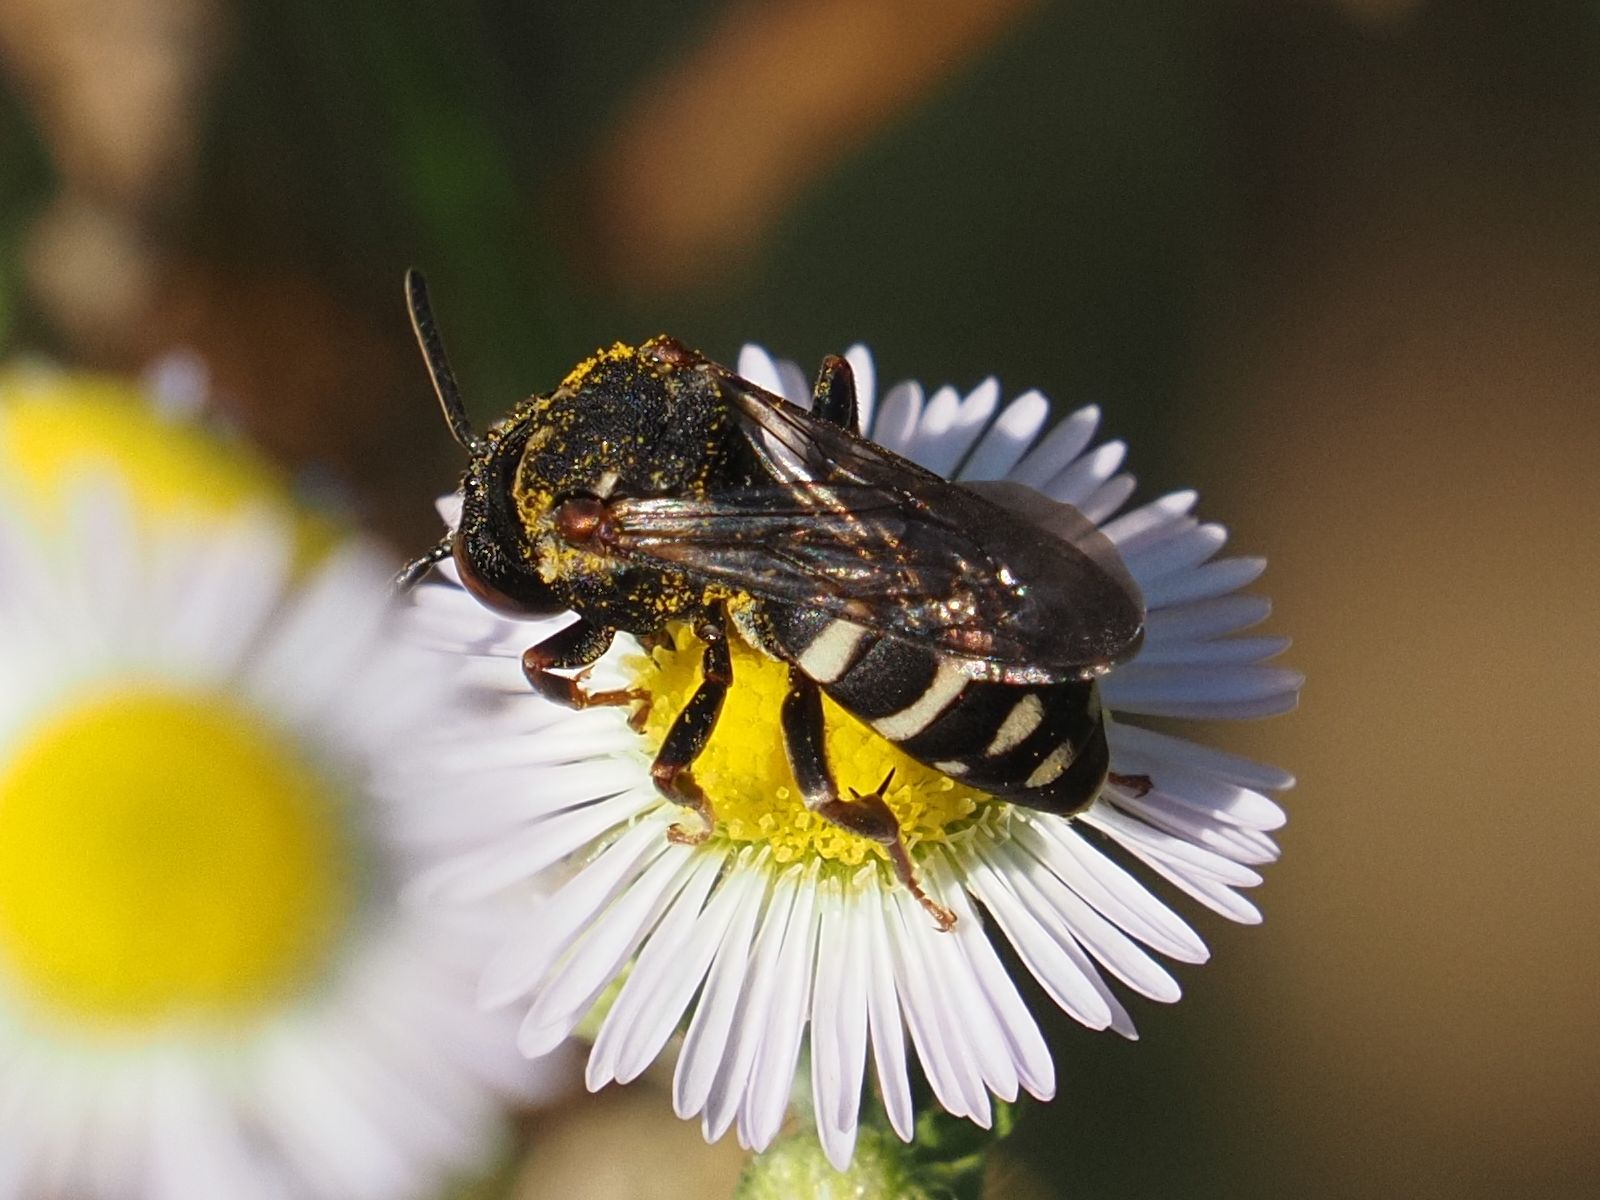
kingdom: Animalia
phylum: Arthropoda
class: Insecta
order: Hymenoptera
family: Apidae
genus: Epeolus
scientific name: Epeolus tarsalis
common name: Epeolus tarsalis subspec. rozenburgenzis
